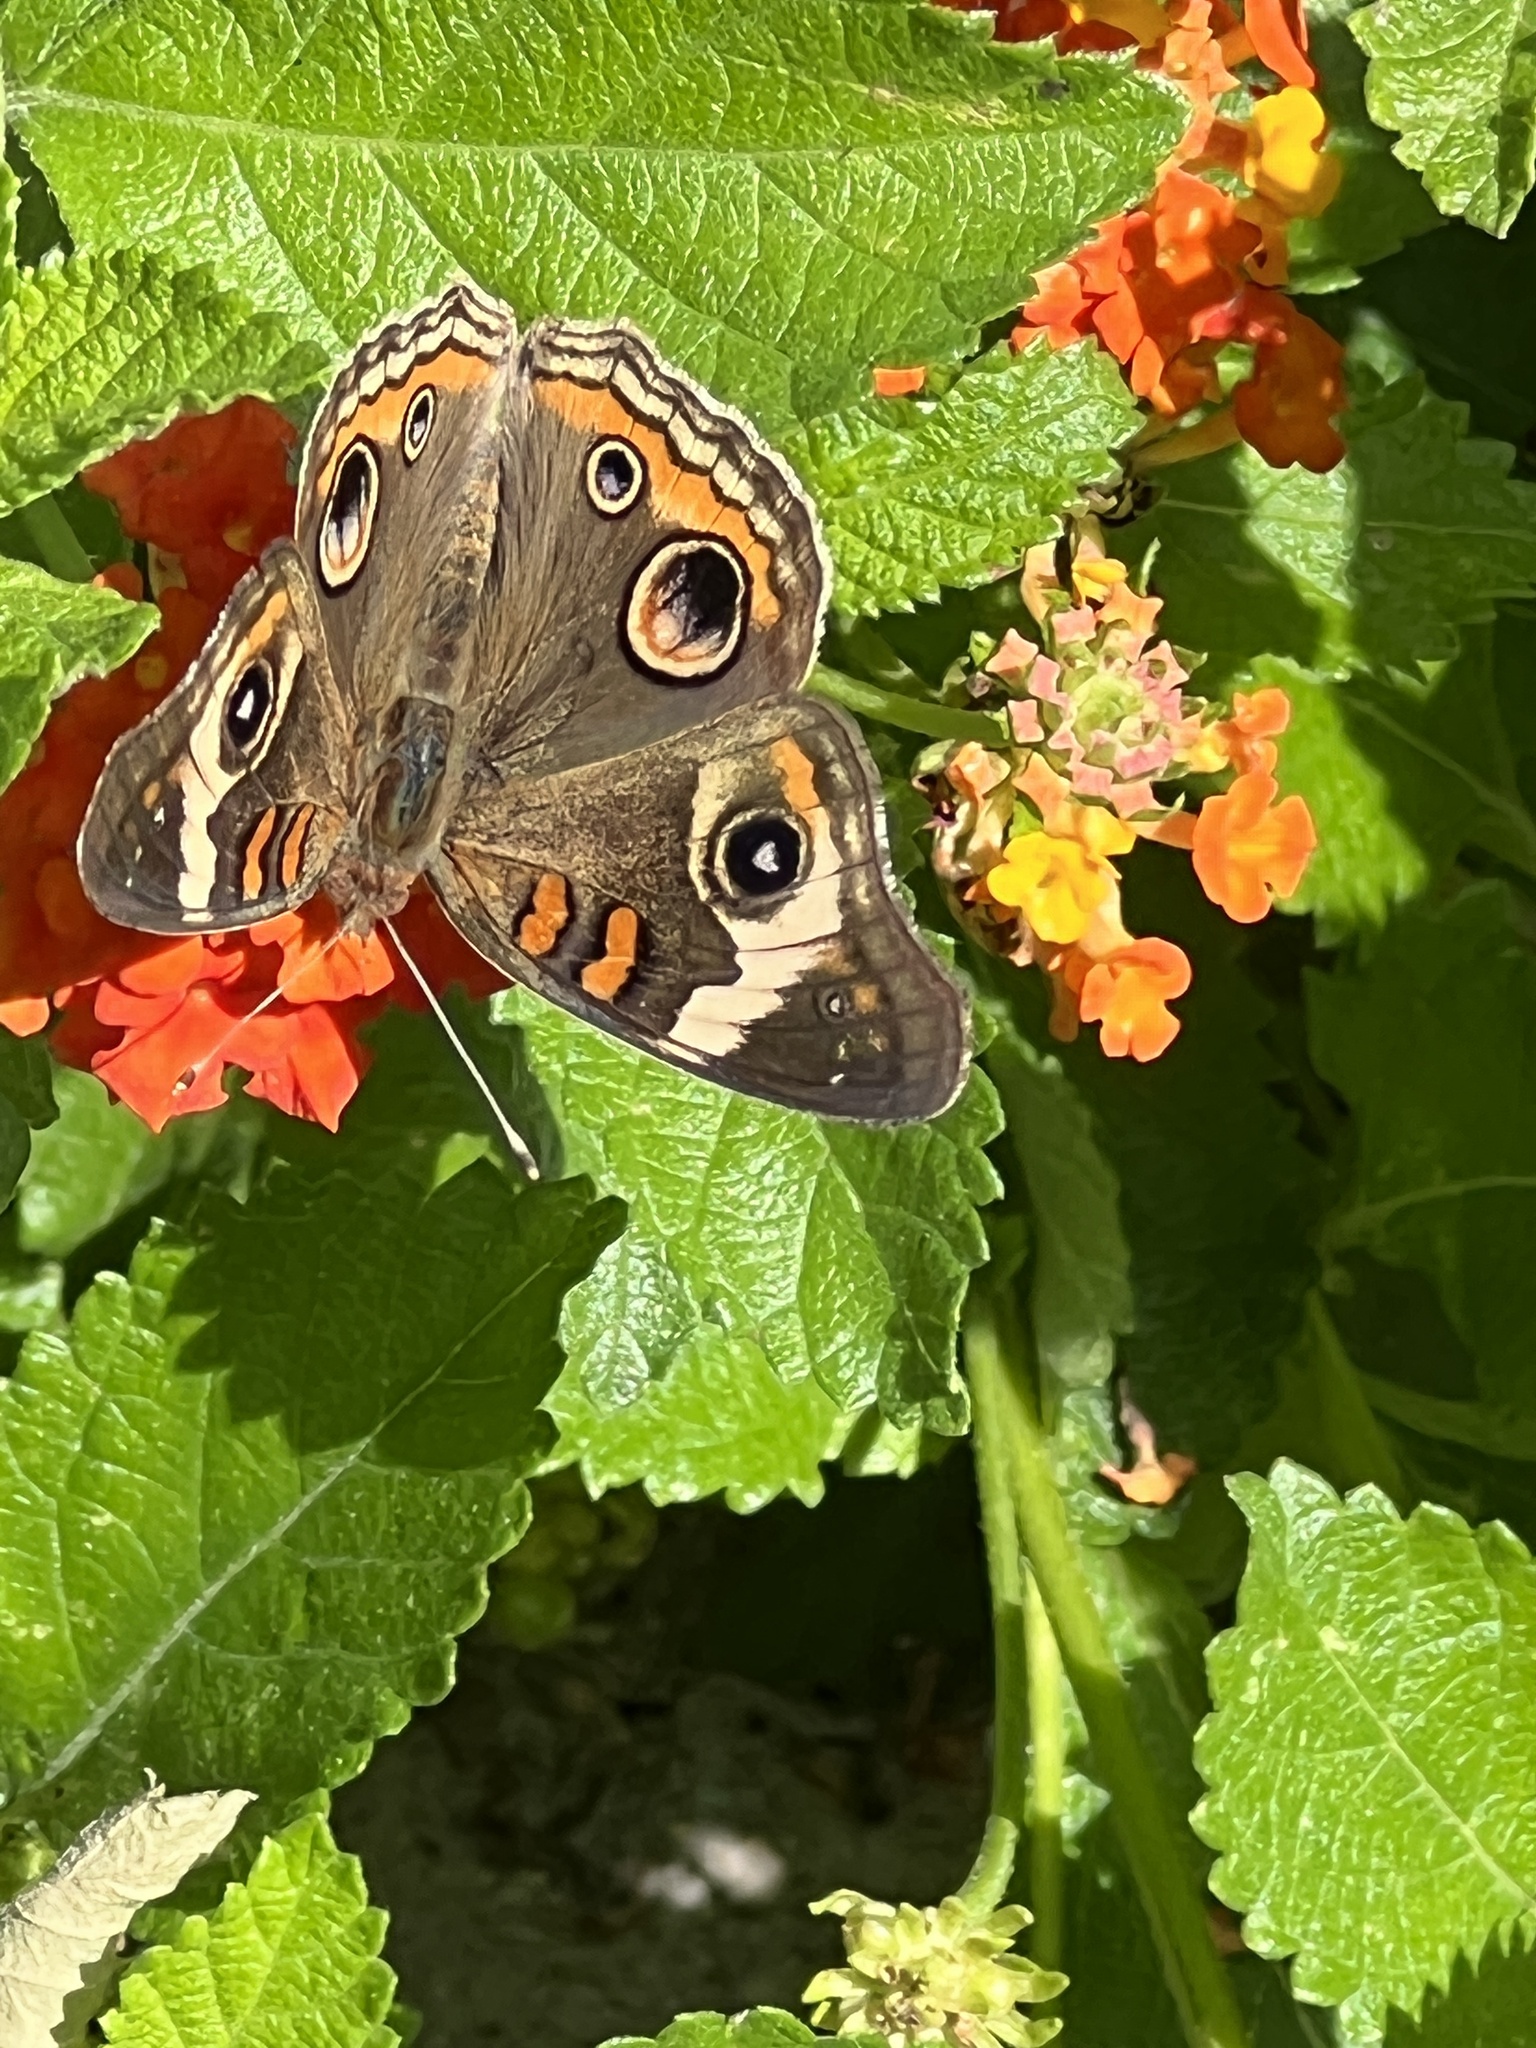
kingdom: Animalia
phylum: Arthropoda
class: Insecta
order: Lepidoptera
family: Nymphalidae
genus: Junonia
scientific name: Junonia coenia
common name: Common buckeye
